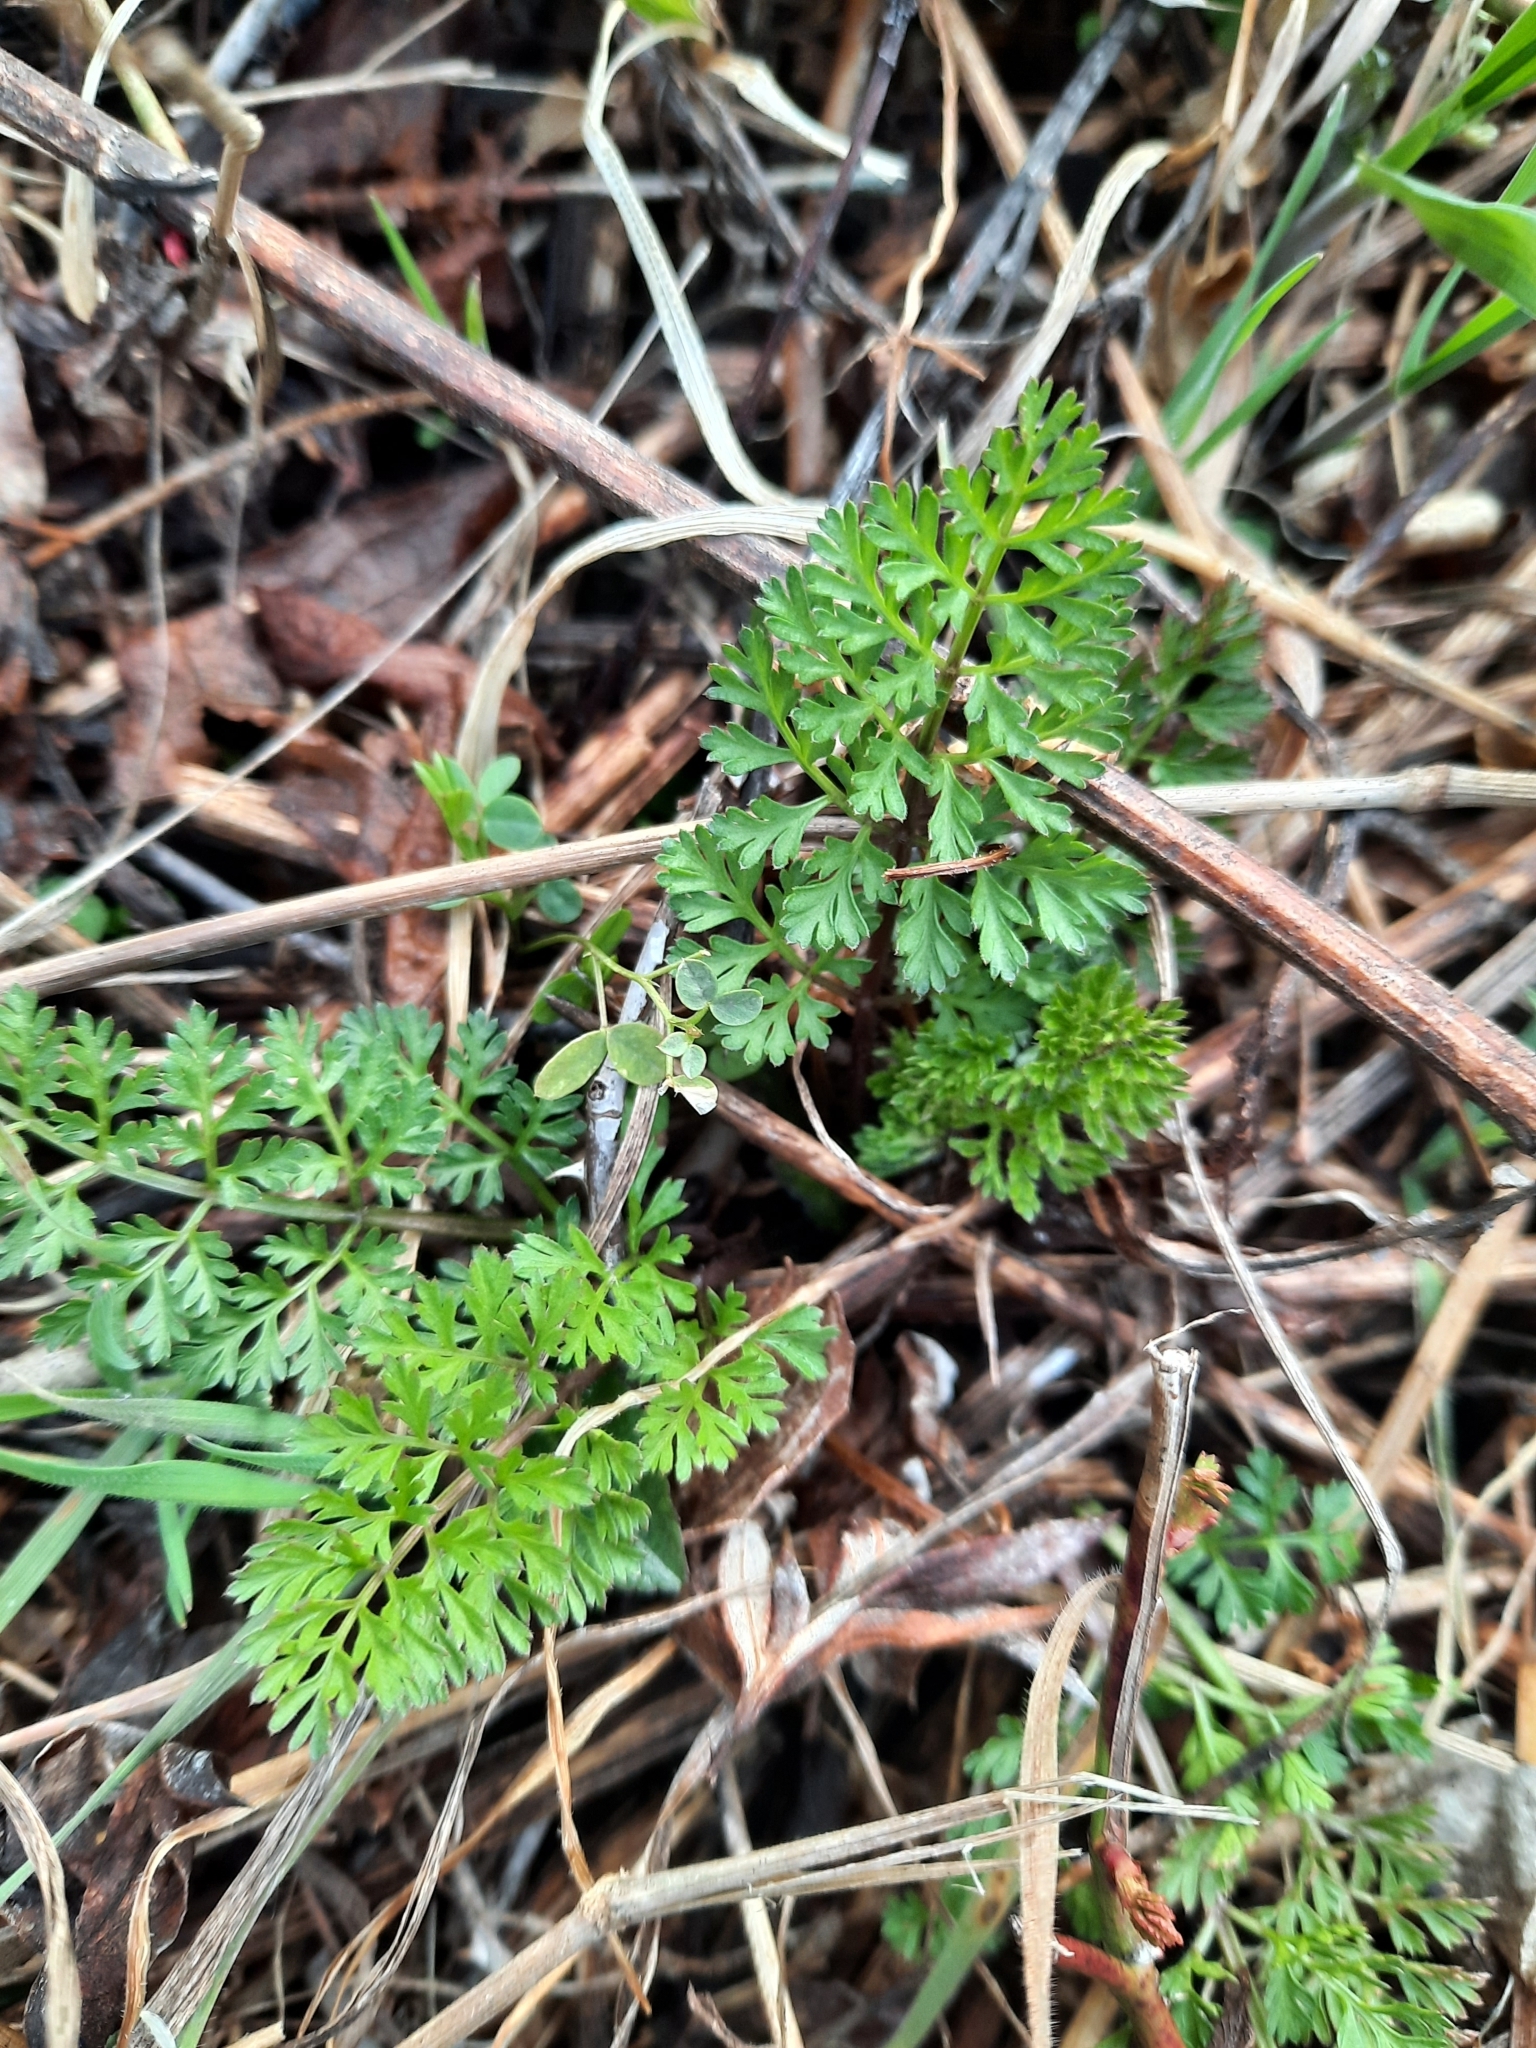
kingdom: Plantae
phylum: Tracheophyta
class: Magnoliopsida
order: Apiales
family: Apiaceae
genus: Daucus
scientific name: Daucus carota
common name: Wild carrot
